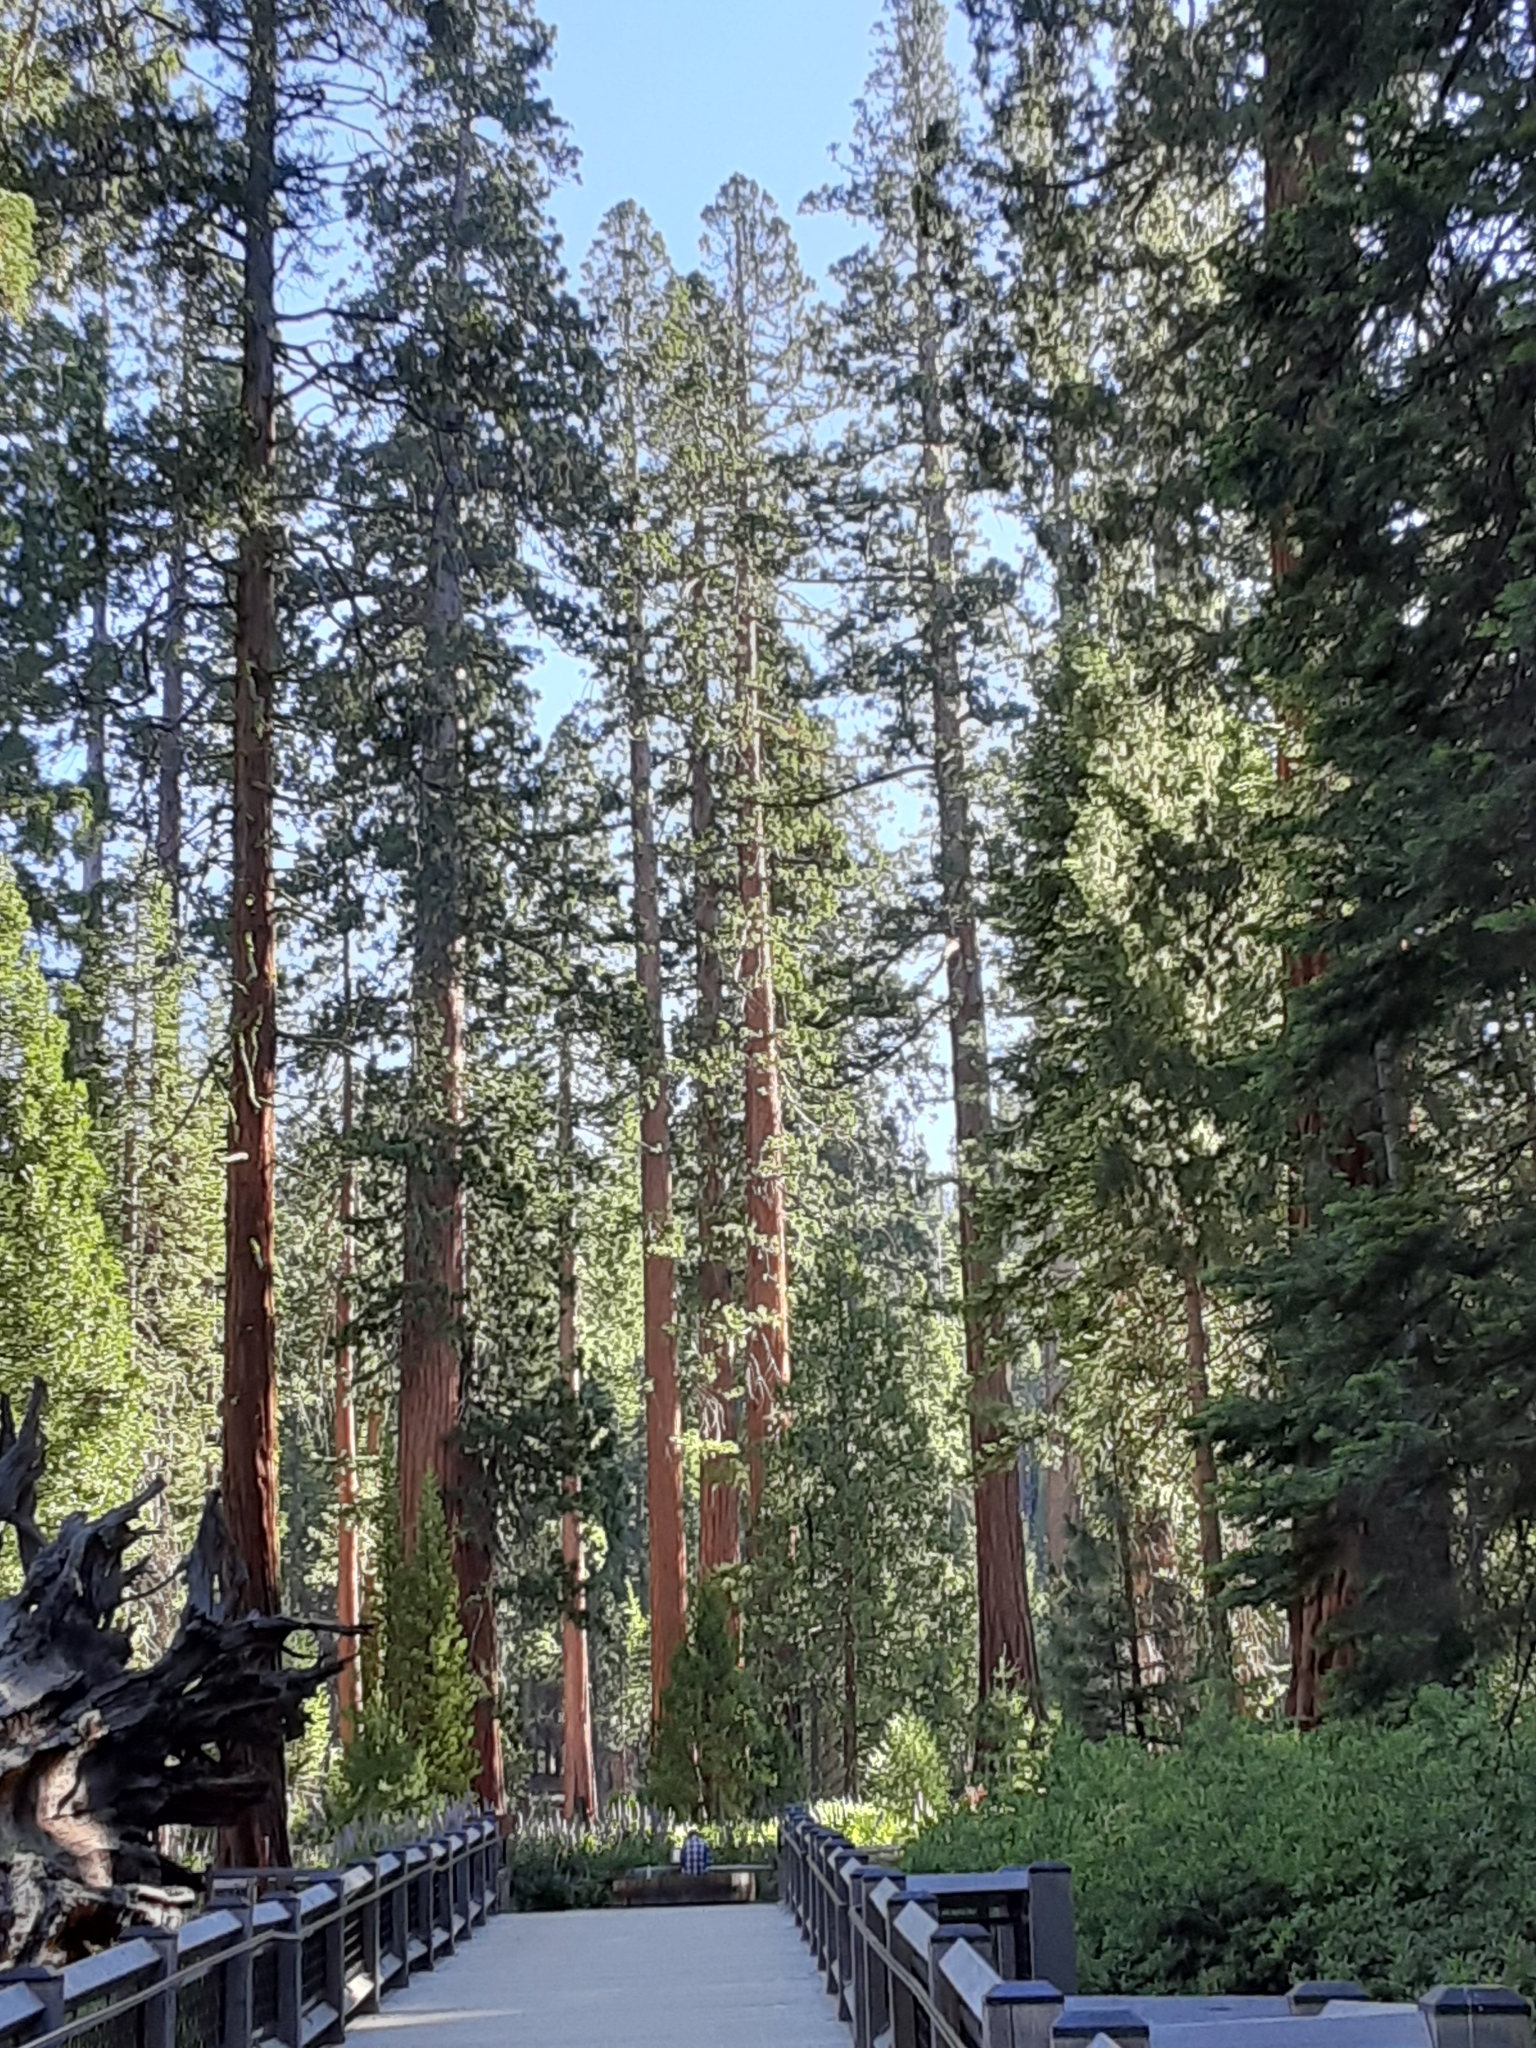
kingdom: Plantae
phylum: Tracheophyta
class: Pinopsida
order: Pinales
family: Cupressaceae
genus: Sequoiadendron
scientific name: Sequoiadendron giganteum
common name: Wellingtonia
